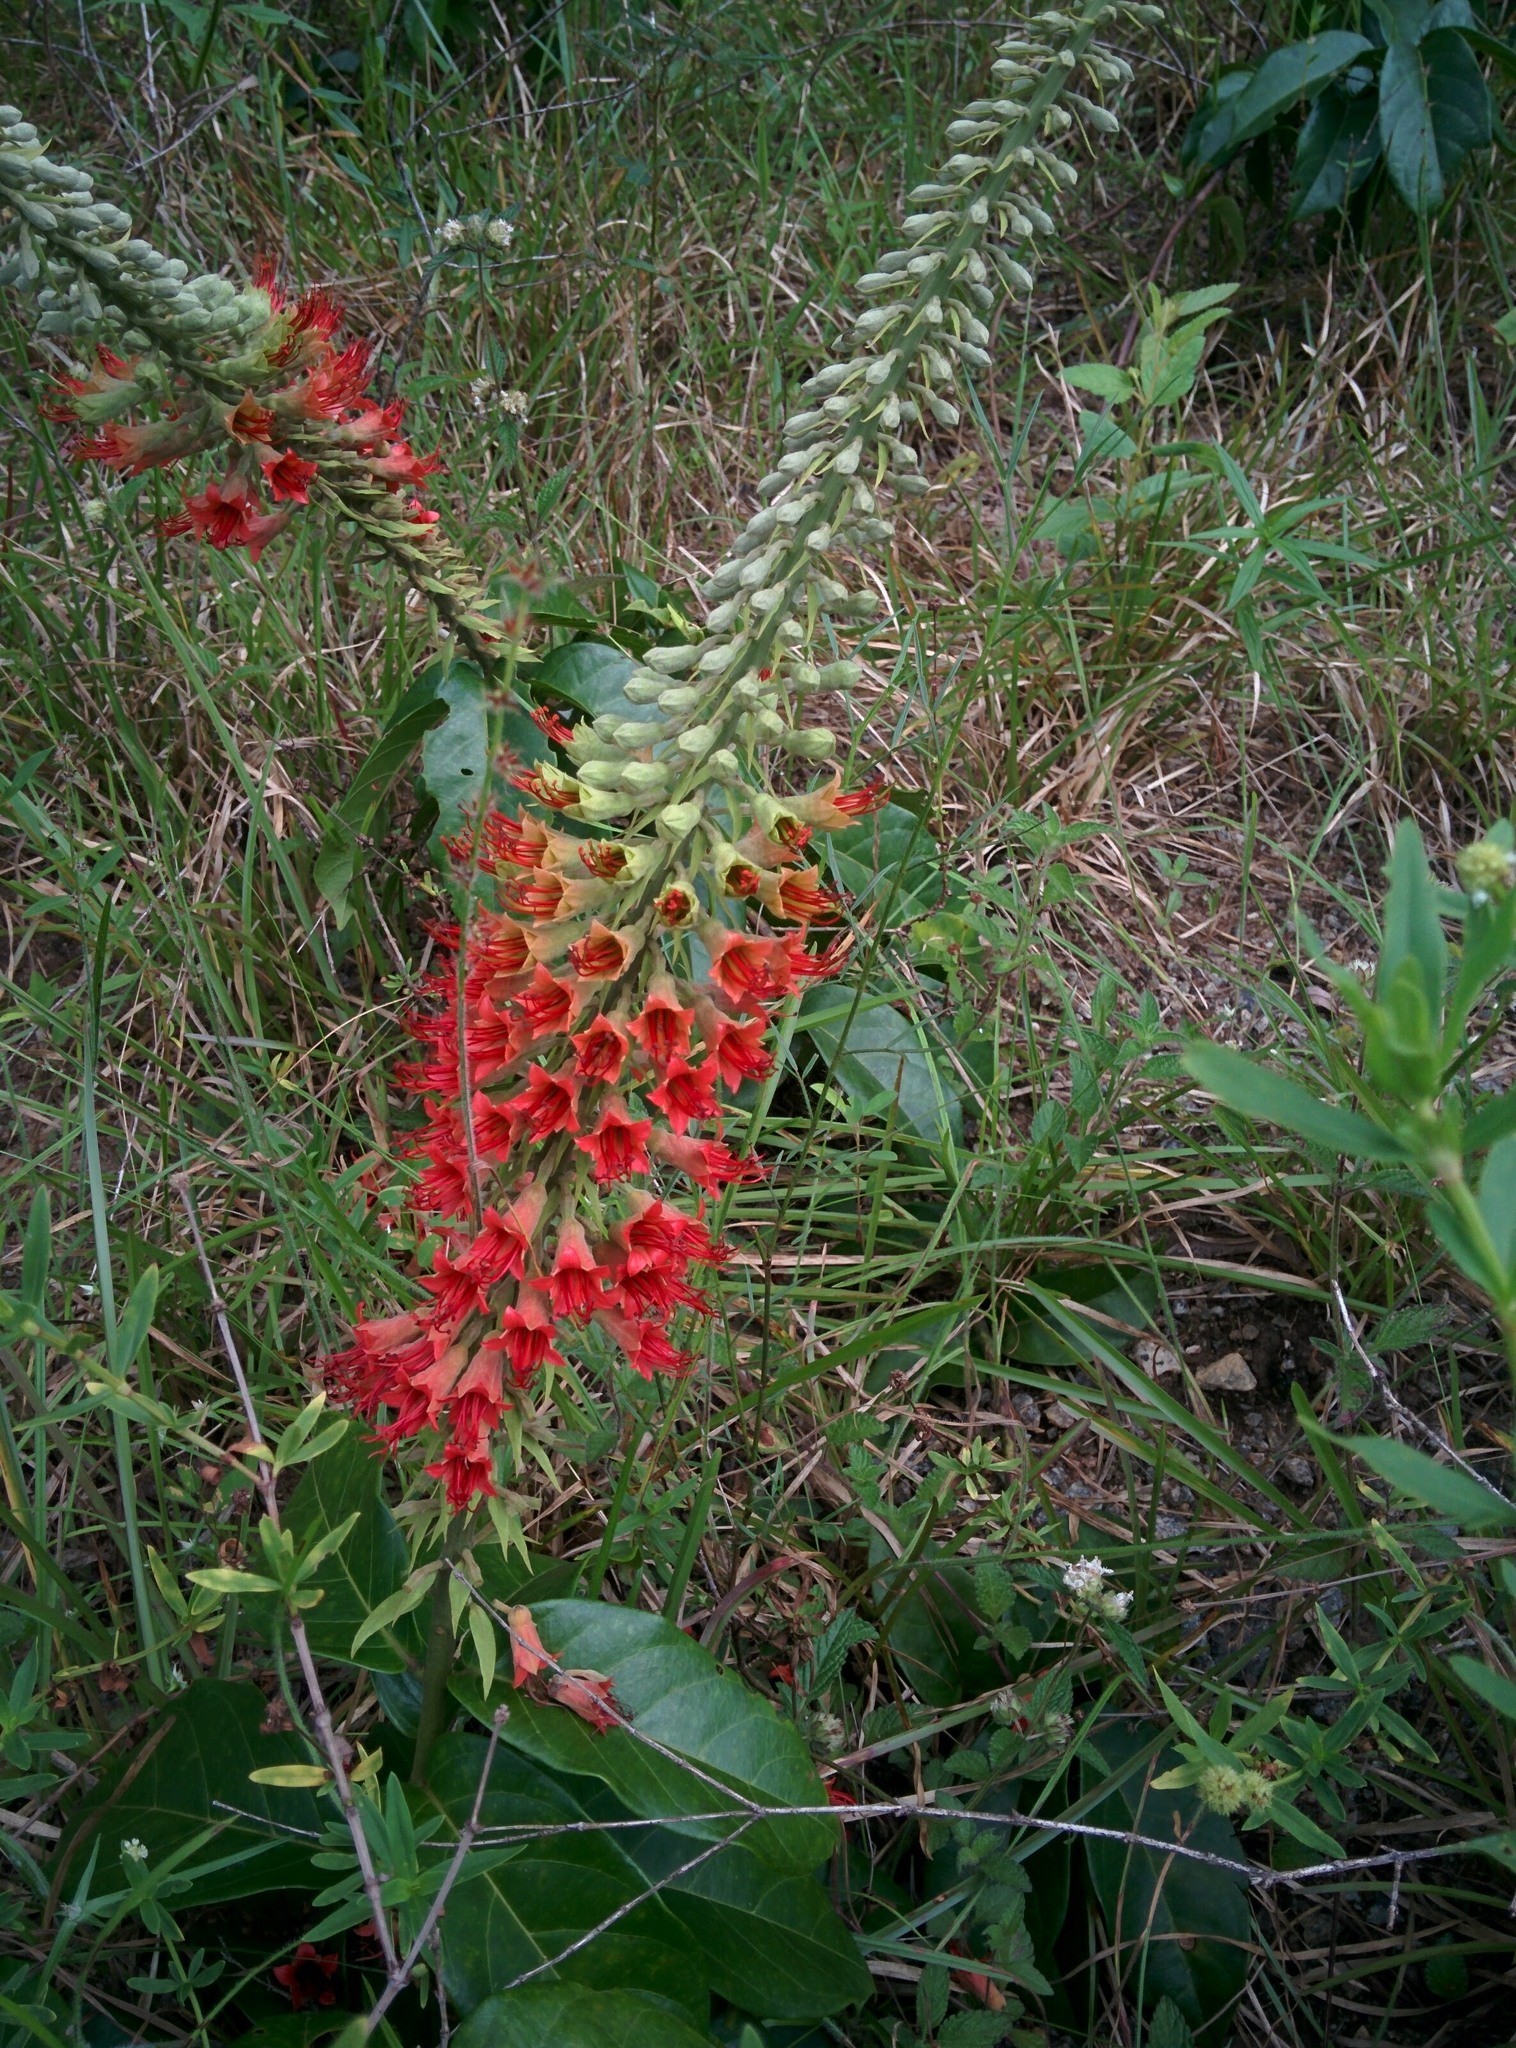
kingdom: Plantae
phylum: Tracheophyta
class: Magnoliopsida
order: Myrtales
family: Combretaceae
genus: Combretum
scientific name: Combretum cacoucia
